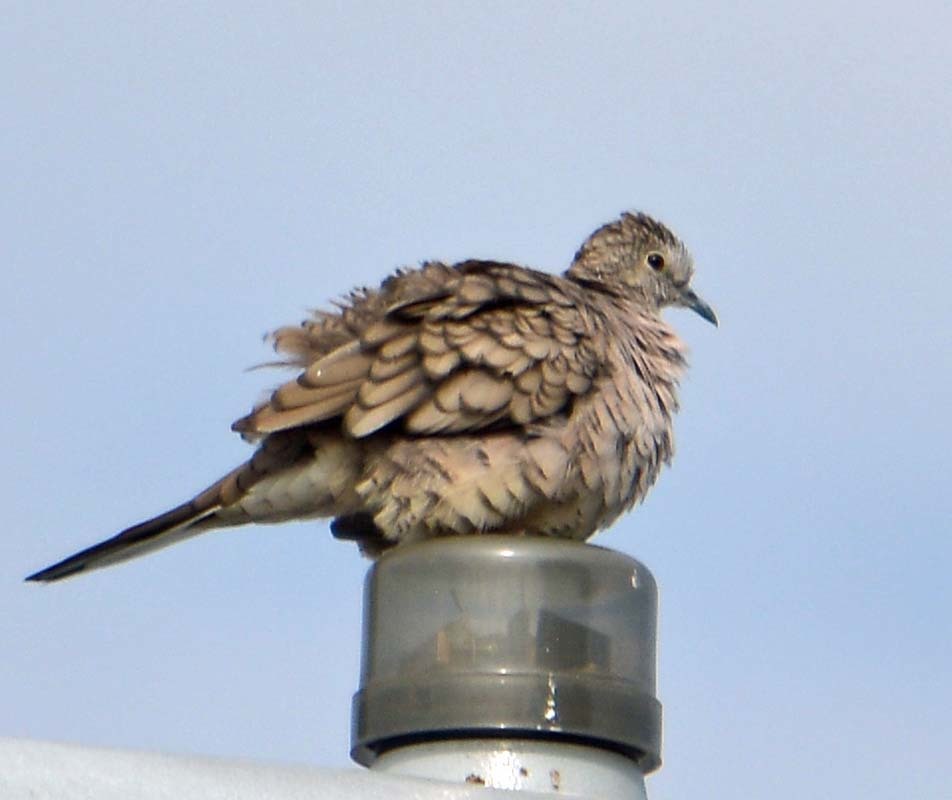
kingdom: Animalia
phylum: Chordata
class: Aves
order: Columbiformes
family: Columbidae
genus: Columbina
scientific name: Columbina inca
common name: Inca dove
